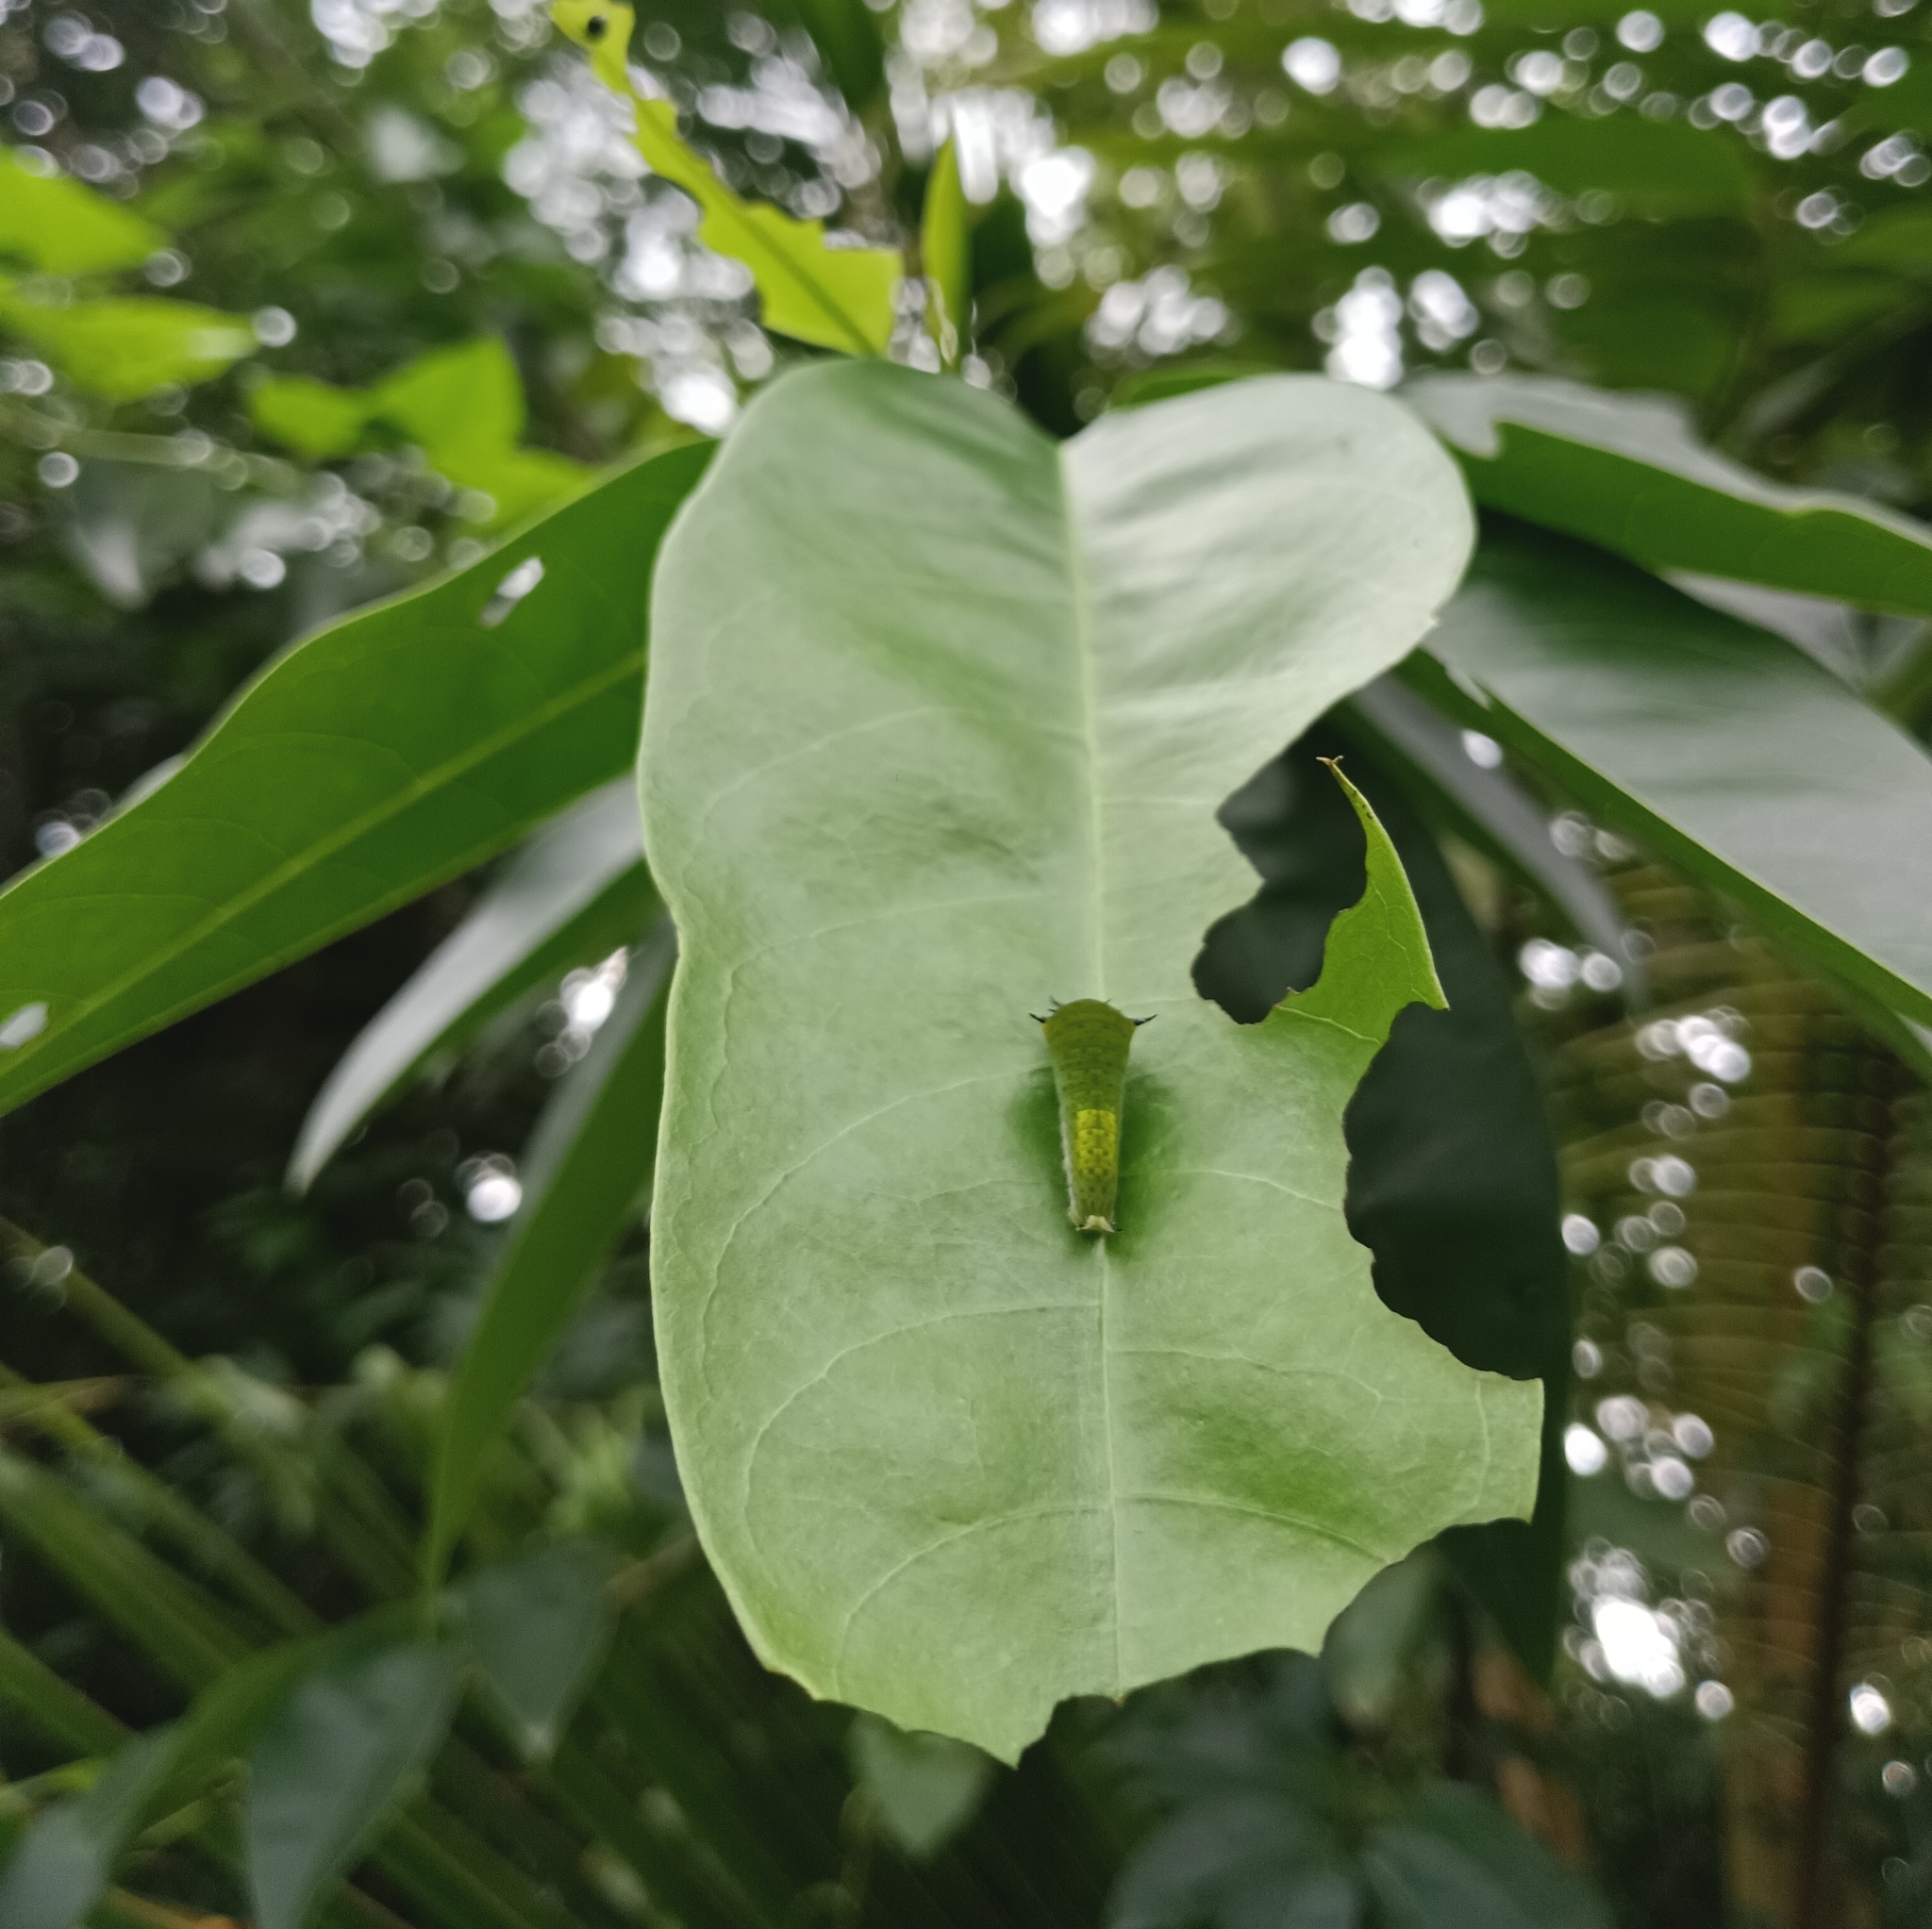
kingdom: Animalia
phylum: Arthropoda
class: Insecta
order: Lepidoptera
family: Papilionidae
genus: Graphium
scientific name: Graphium agamemnon
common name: Tailed jay
